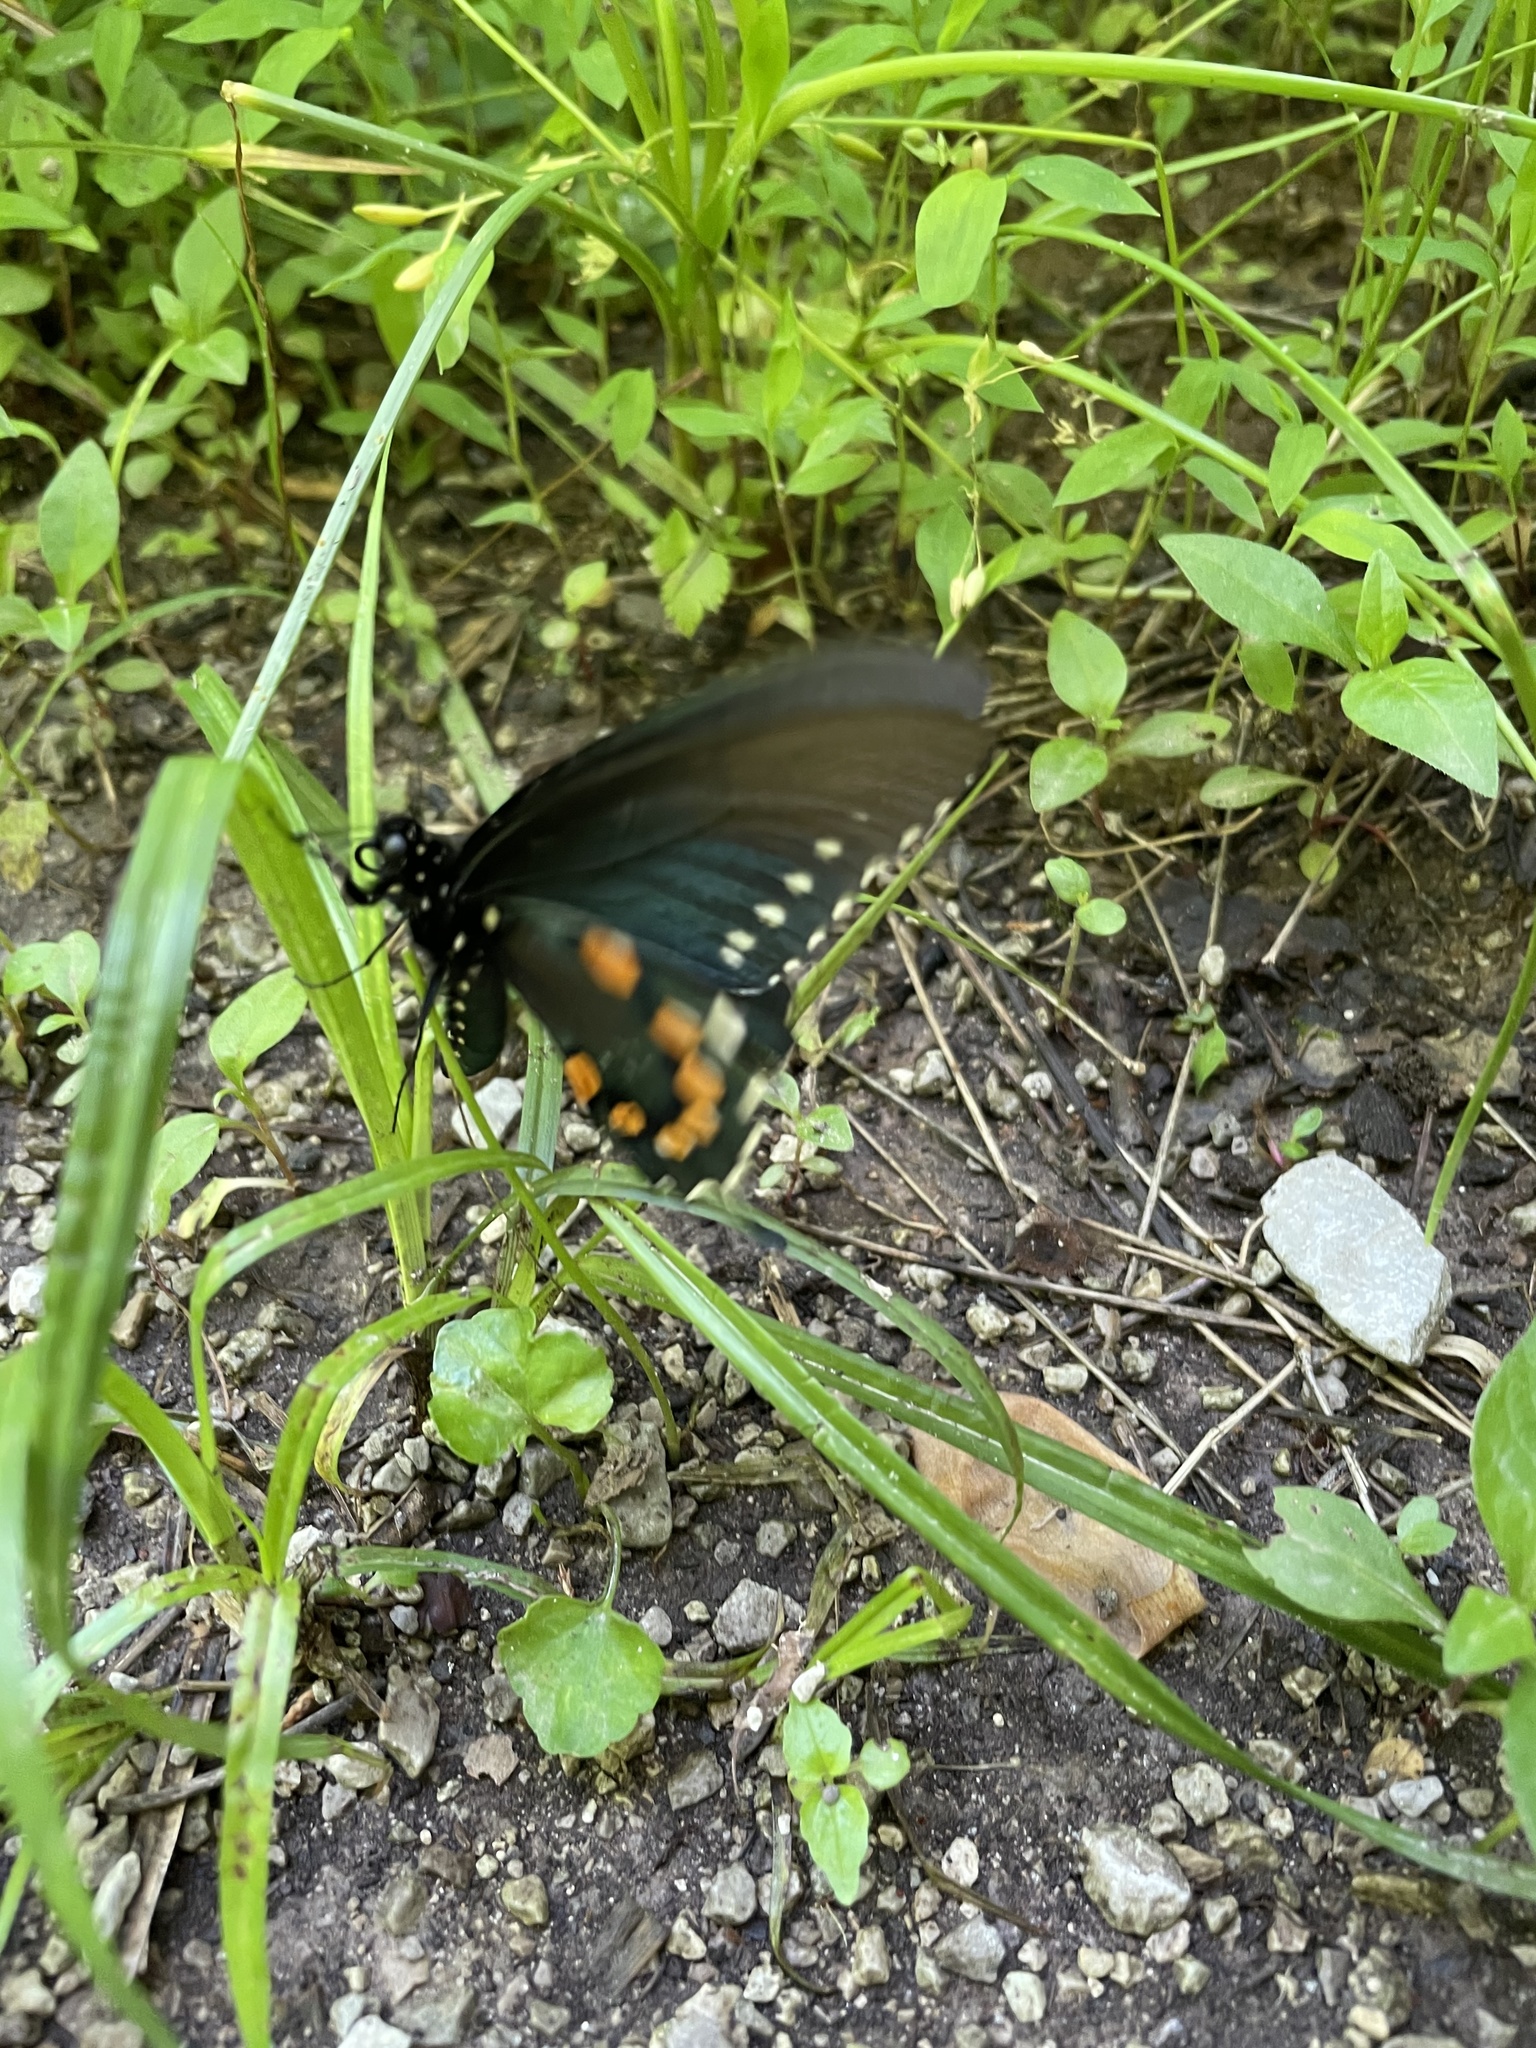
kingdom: Animalia
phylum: Arthropoda
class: Insecta
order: Lepidoptera
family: Papilionidae
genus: Battus
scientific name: Battus philenor
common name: Pipevine swallowtail
